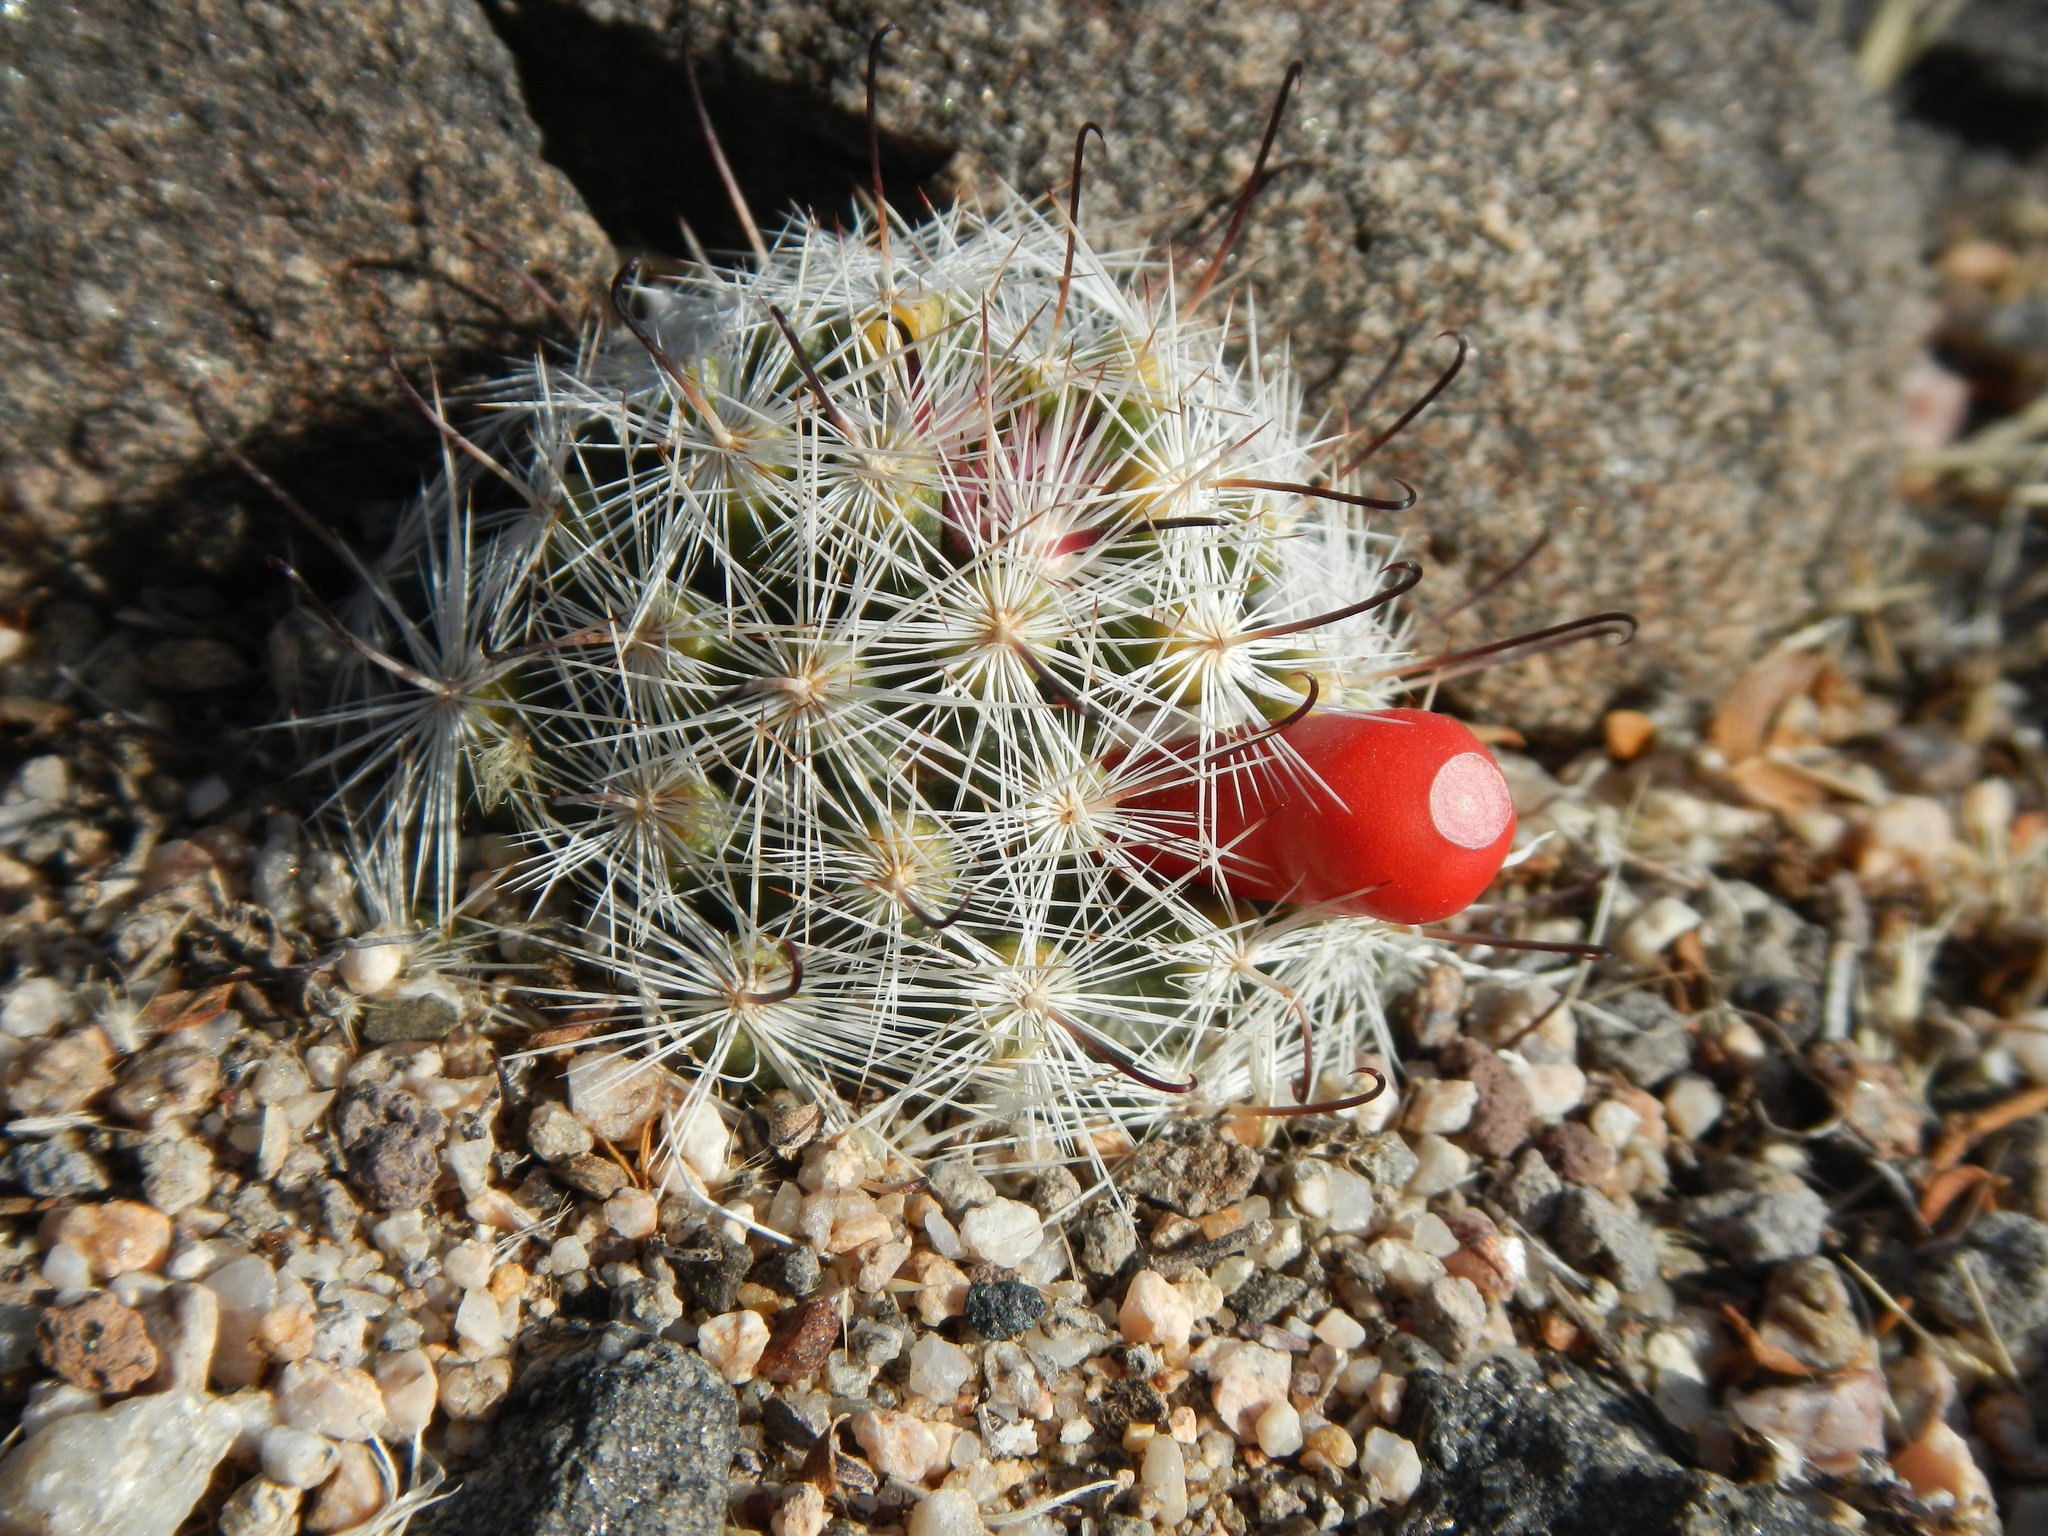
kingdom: Plantae
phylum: Tracheophyta
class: Magnoliopsida
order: Caryophyllales
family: Cactaceae
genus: Cochemiea
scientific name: Cochemiea tetrancistra
